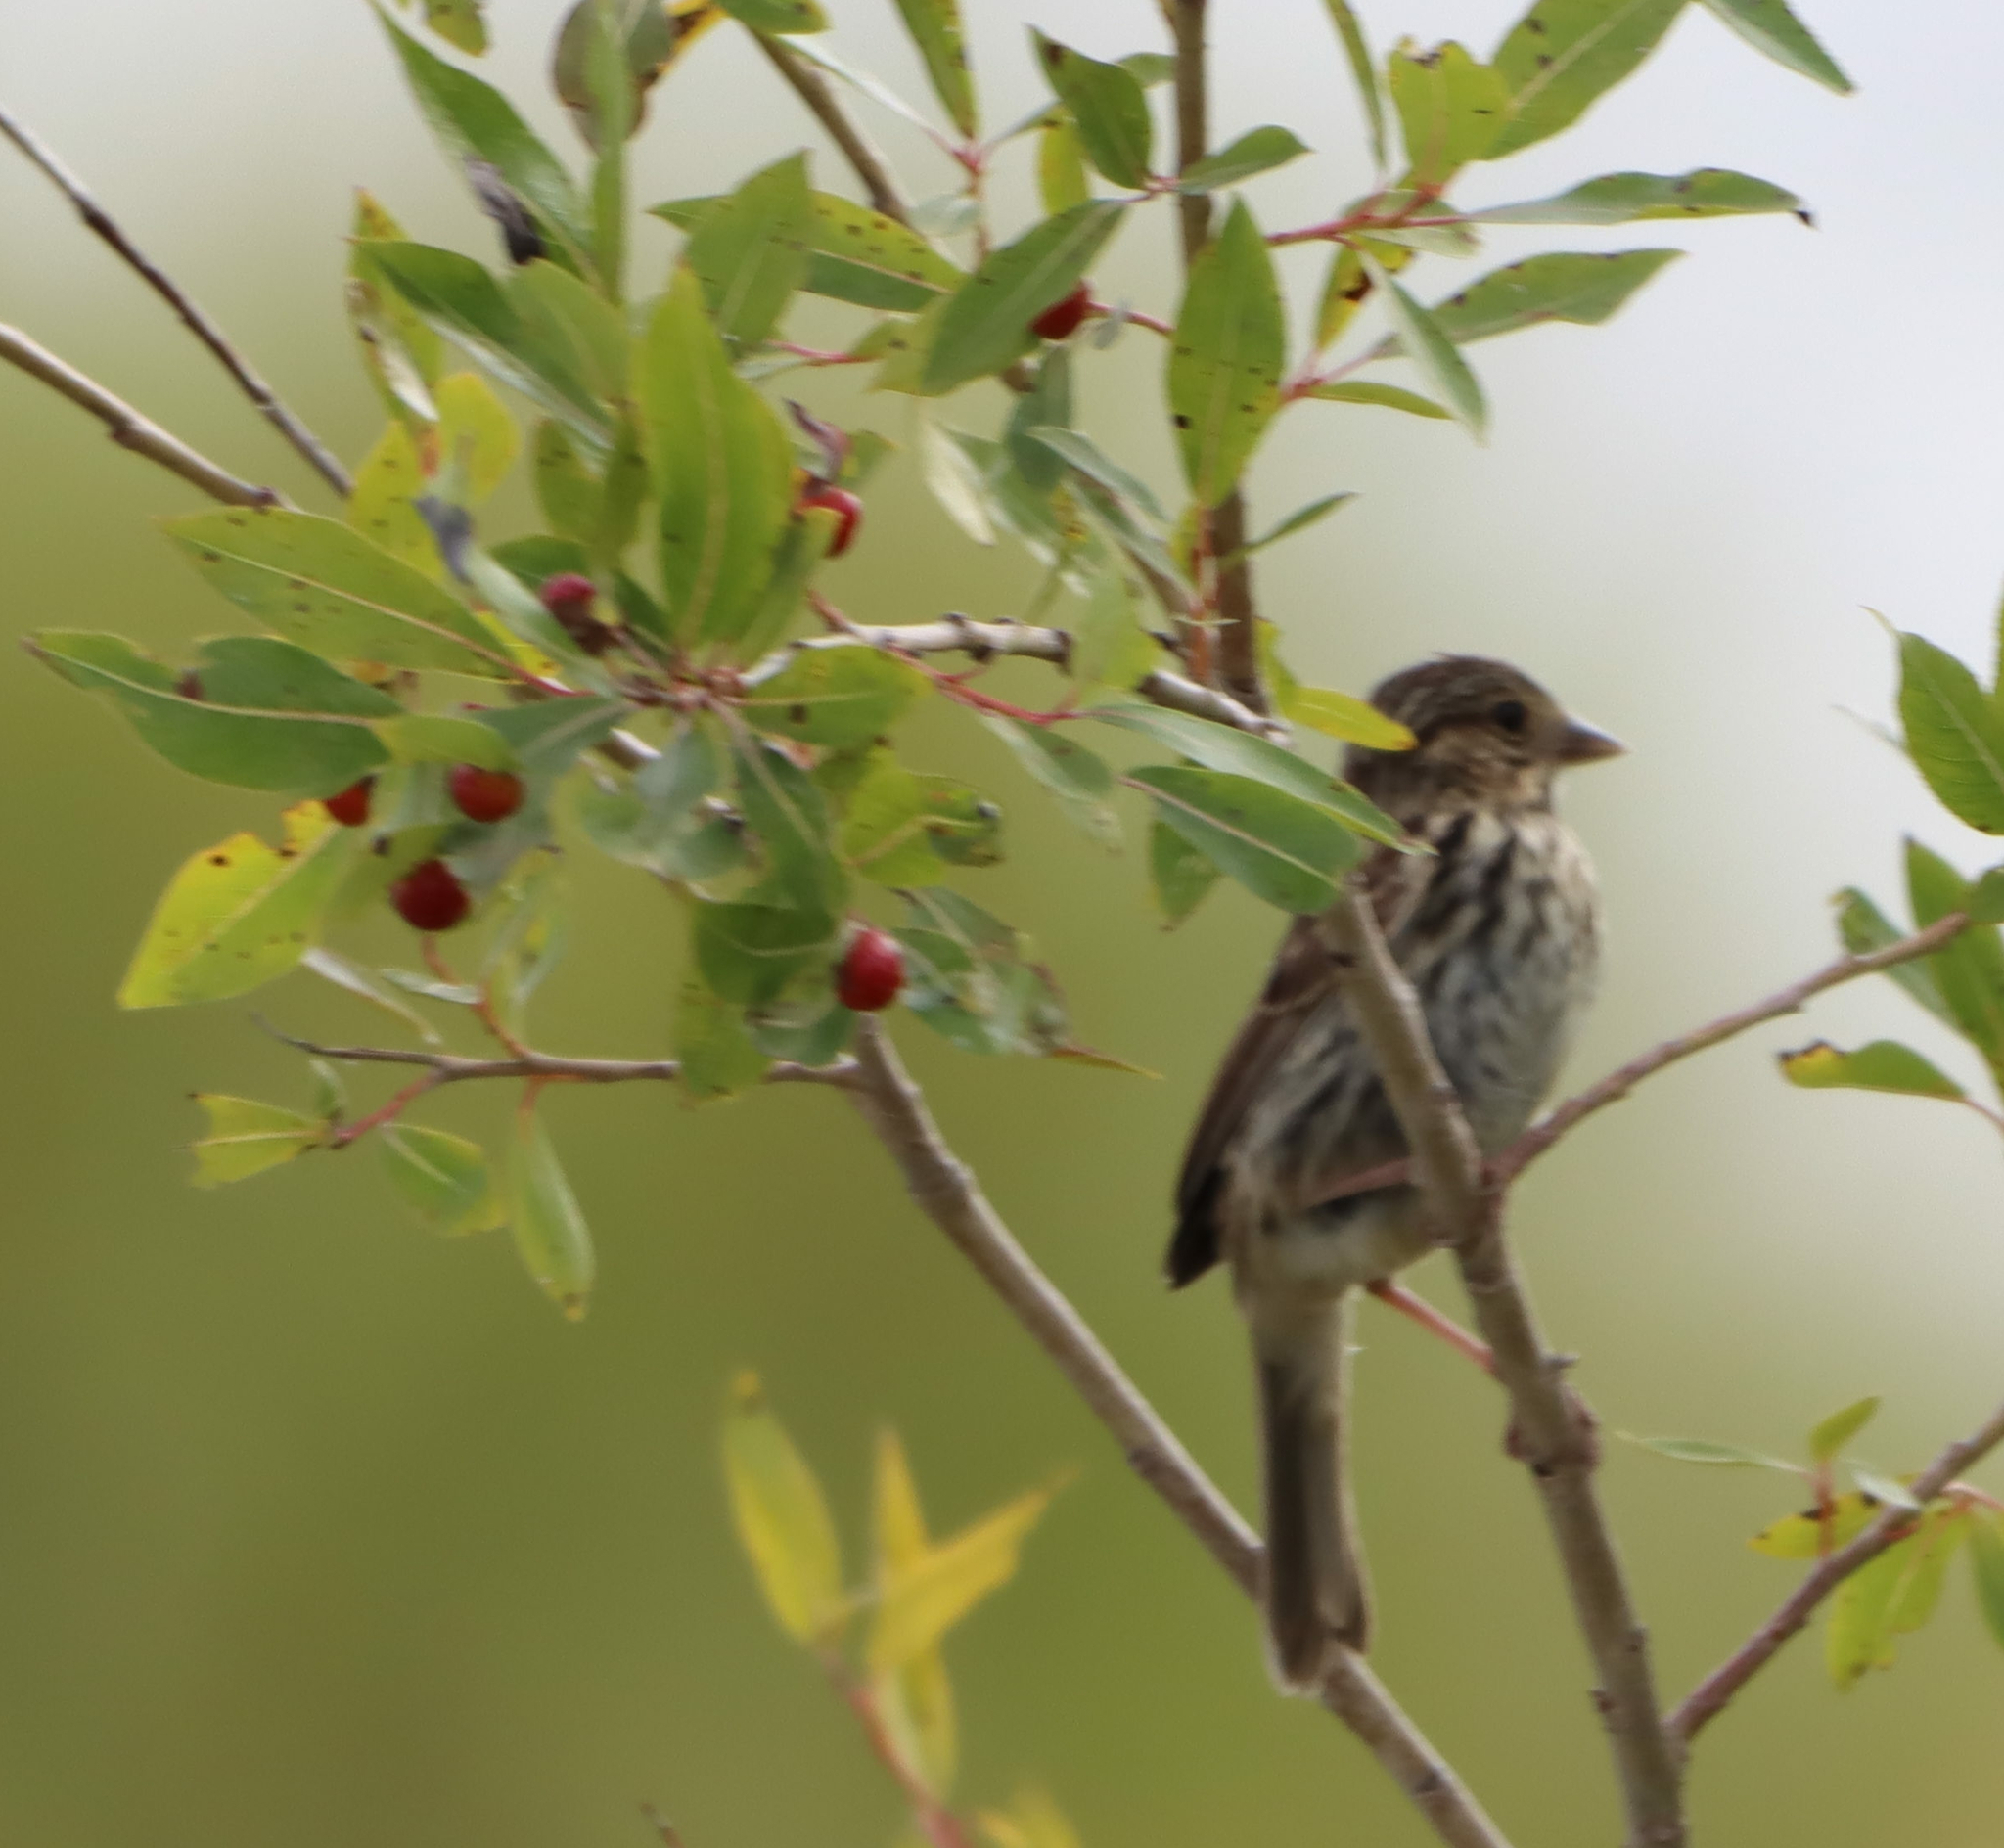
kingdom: Animalia
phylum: Chordata
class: Aves
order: Passeriformes
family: Passerellidae
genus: Melospiza
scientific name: Melospiza melodia
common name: Song sparrow
